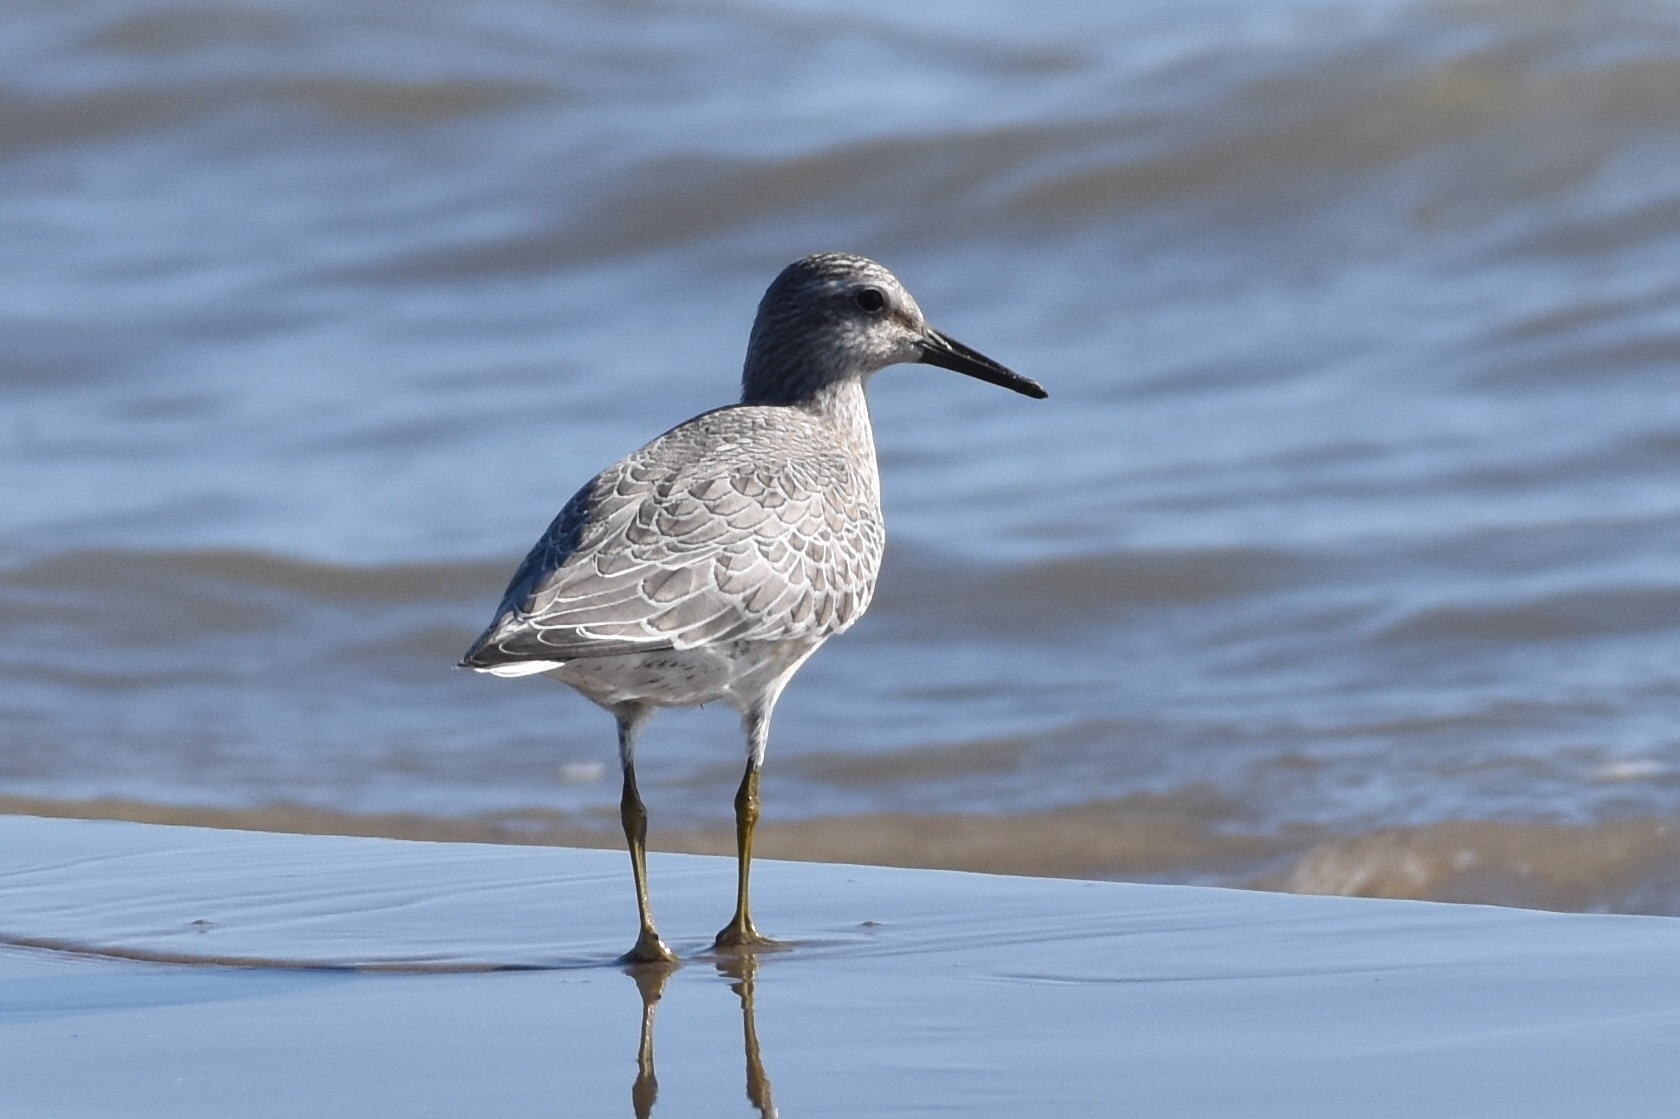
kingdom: Animalia
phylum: Chordata
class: Aves
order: Charadriiformes
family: Scolopacidae
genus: Calidris
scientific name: Calidris canutus
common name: Red knot
